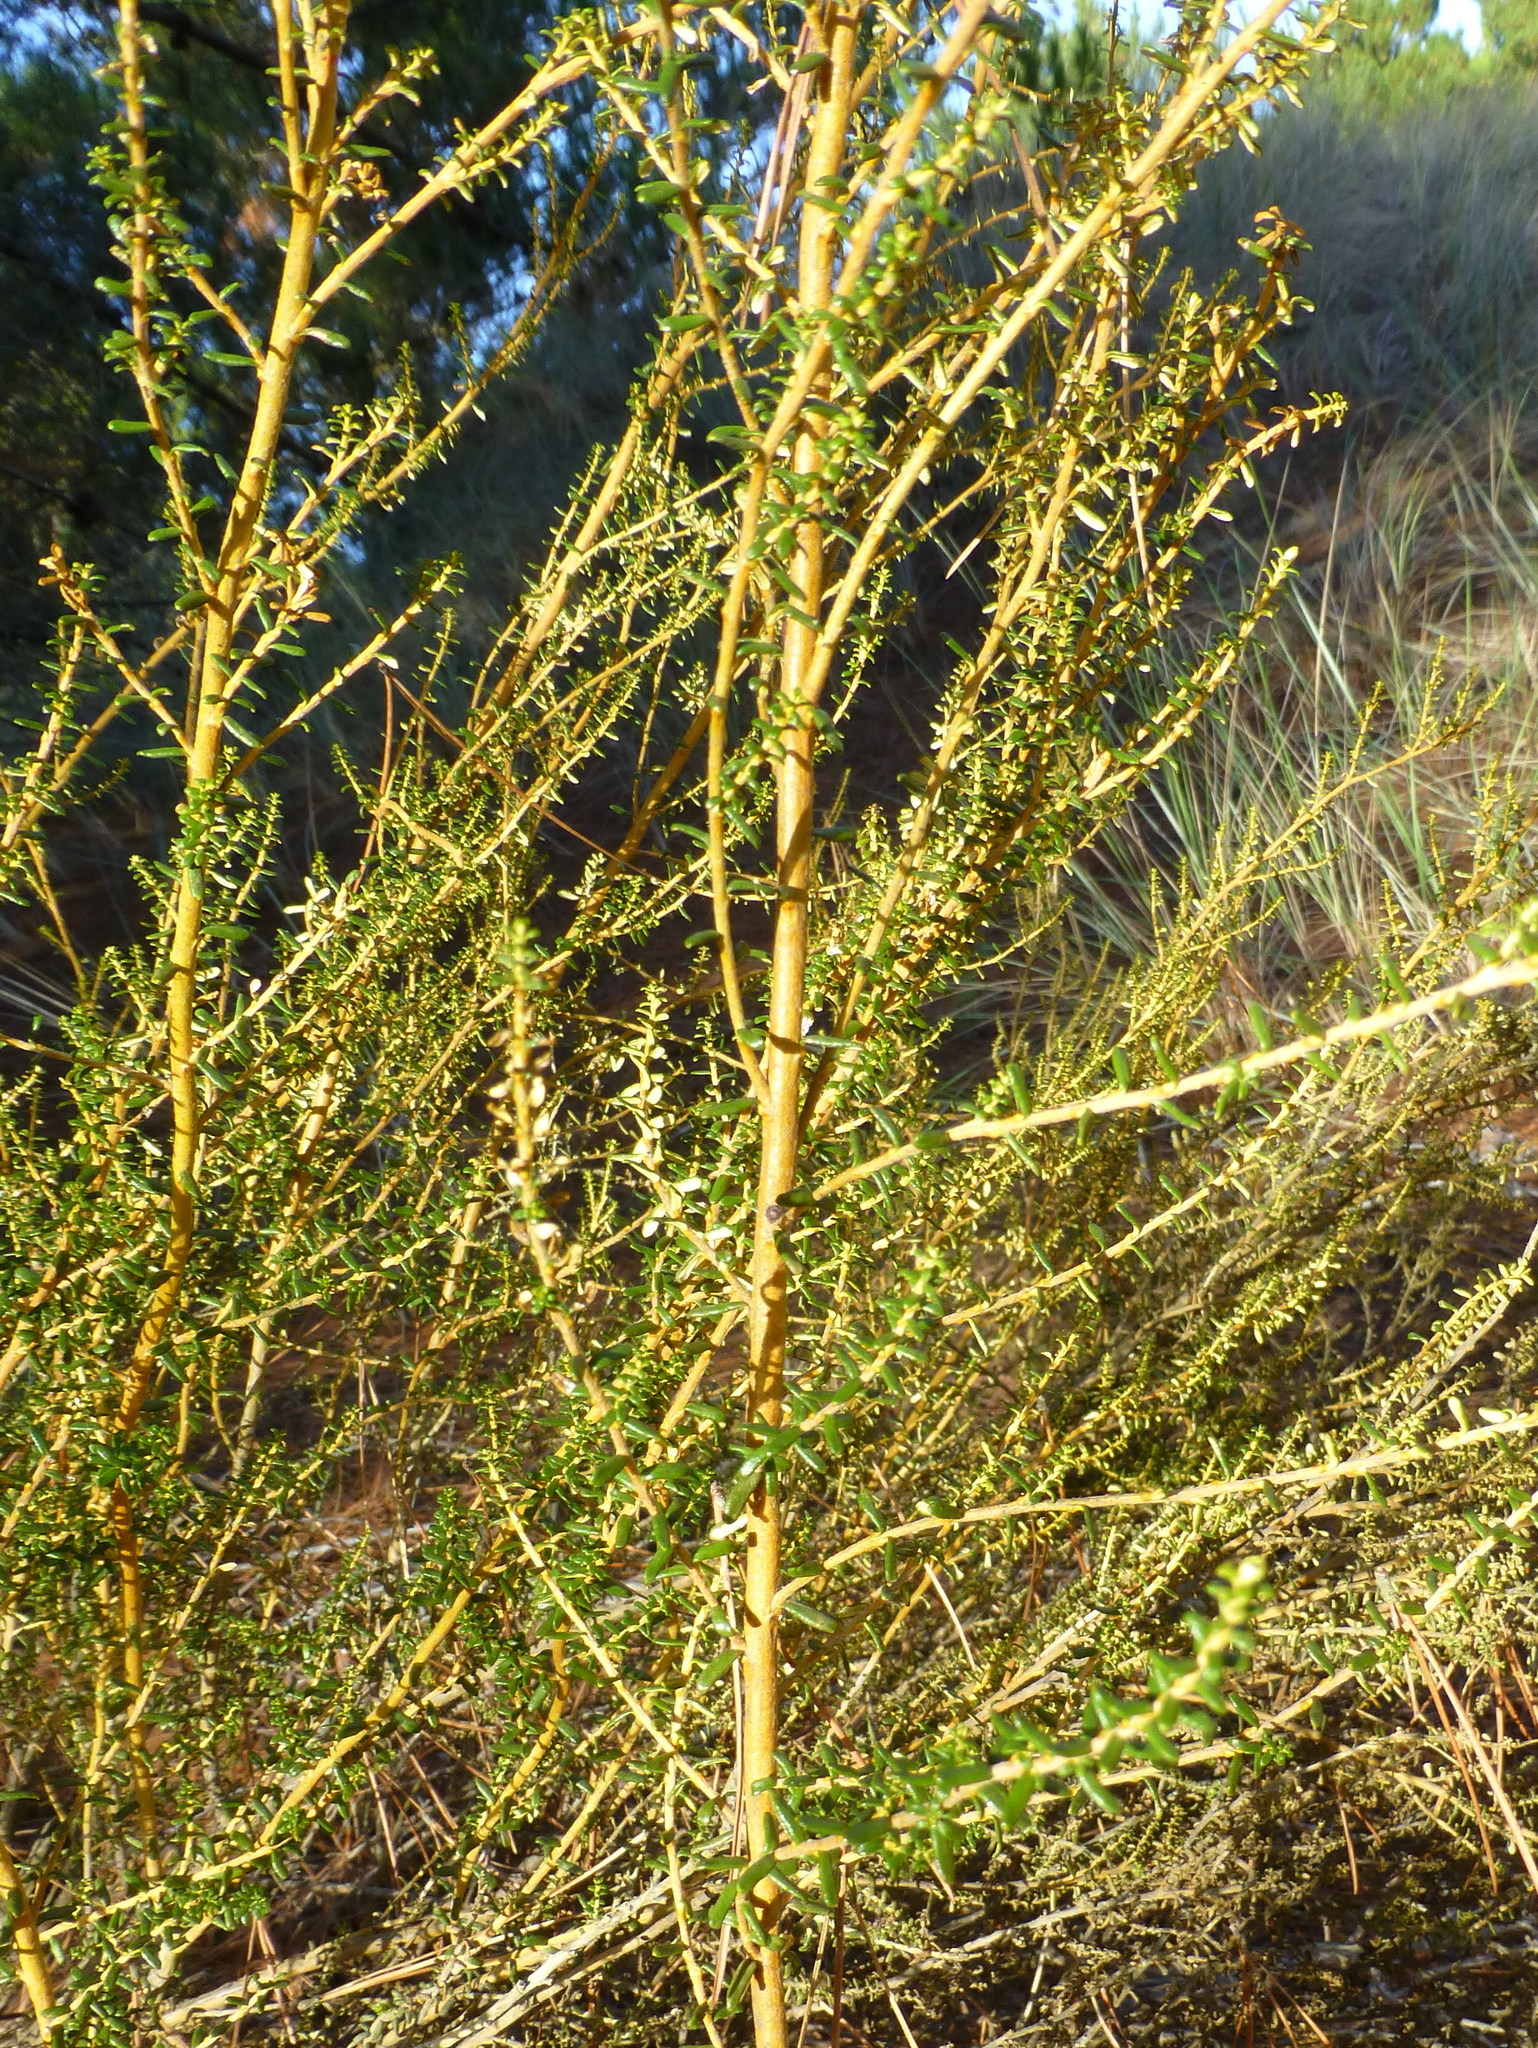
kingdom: Plantae
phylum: Tracheophyta
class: Magnoliopsida
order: Asterales
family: Asteraceae
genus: Ozothamnus
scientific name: Ozothamnus leptophyllus
